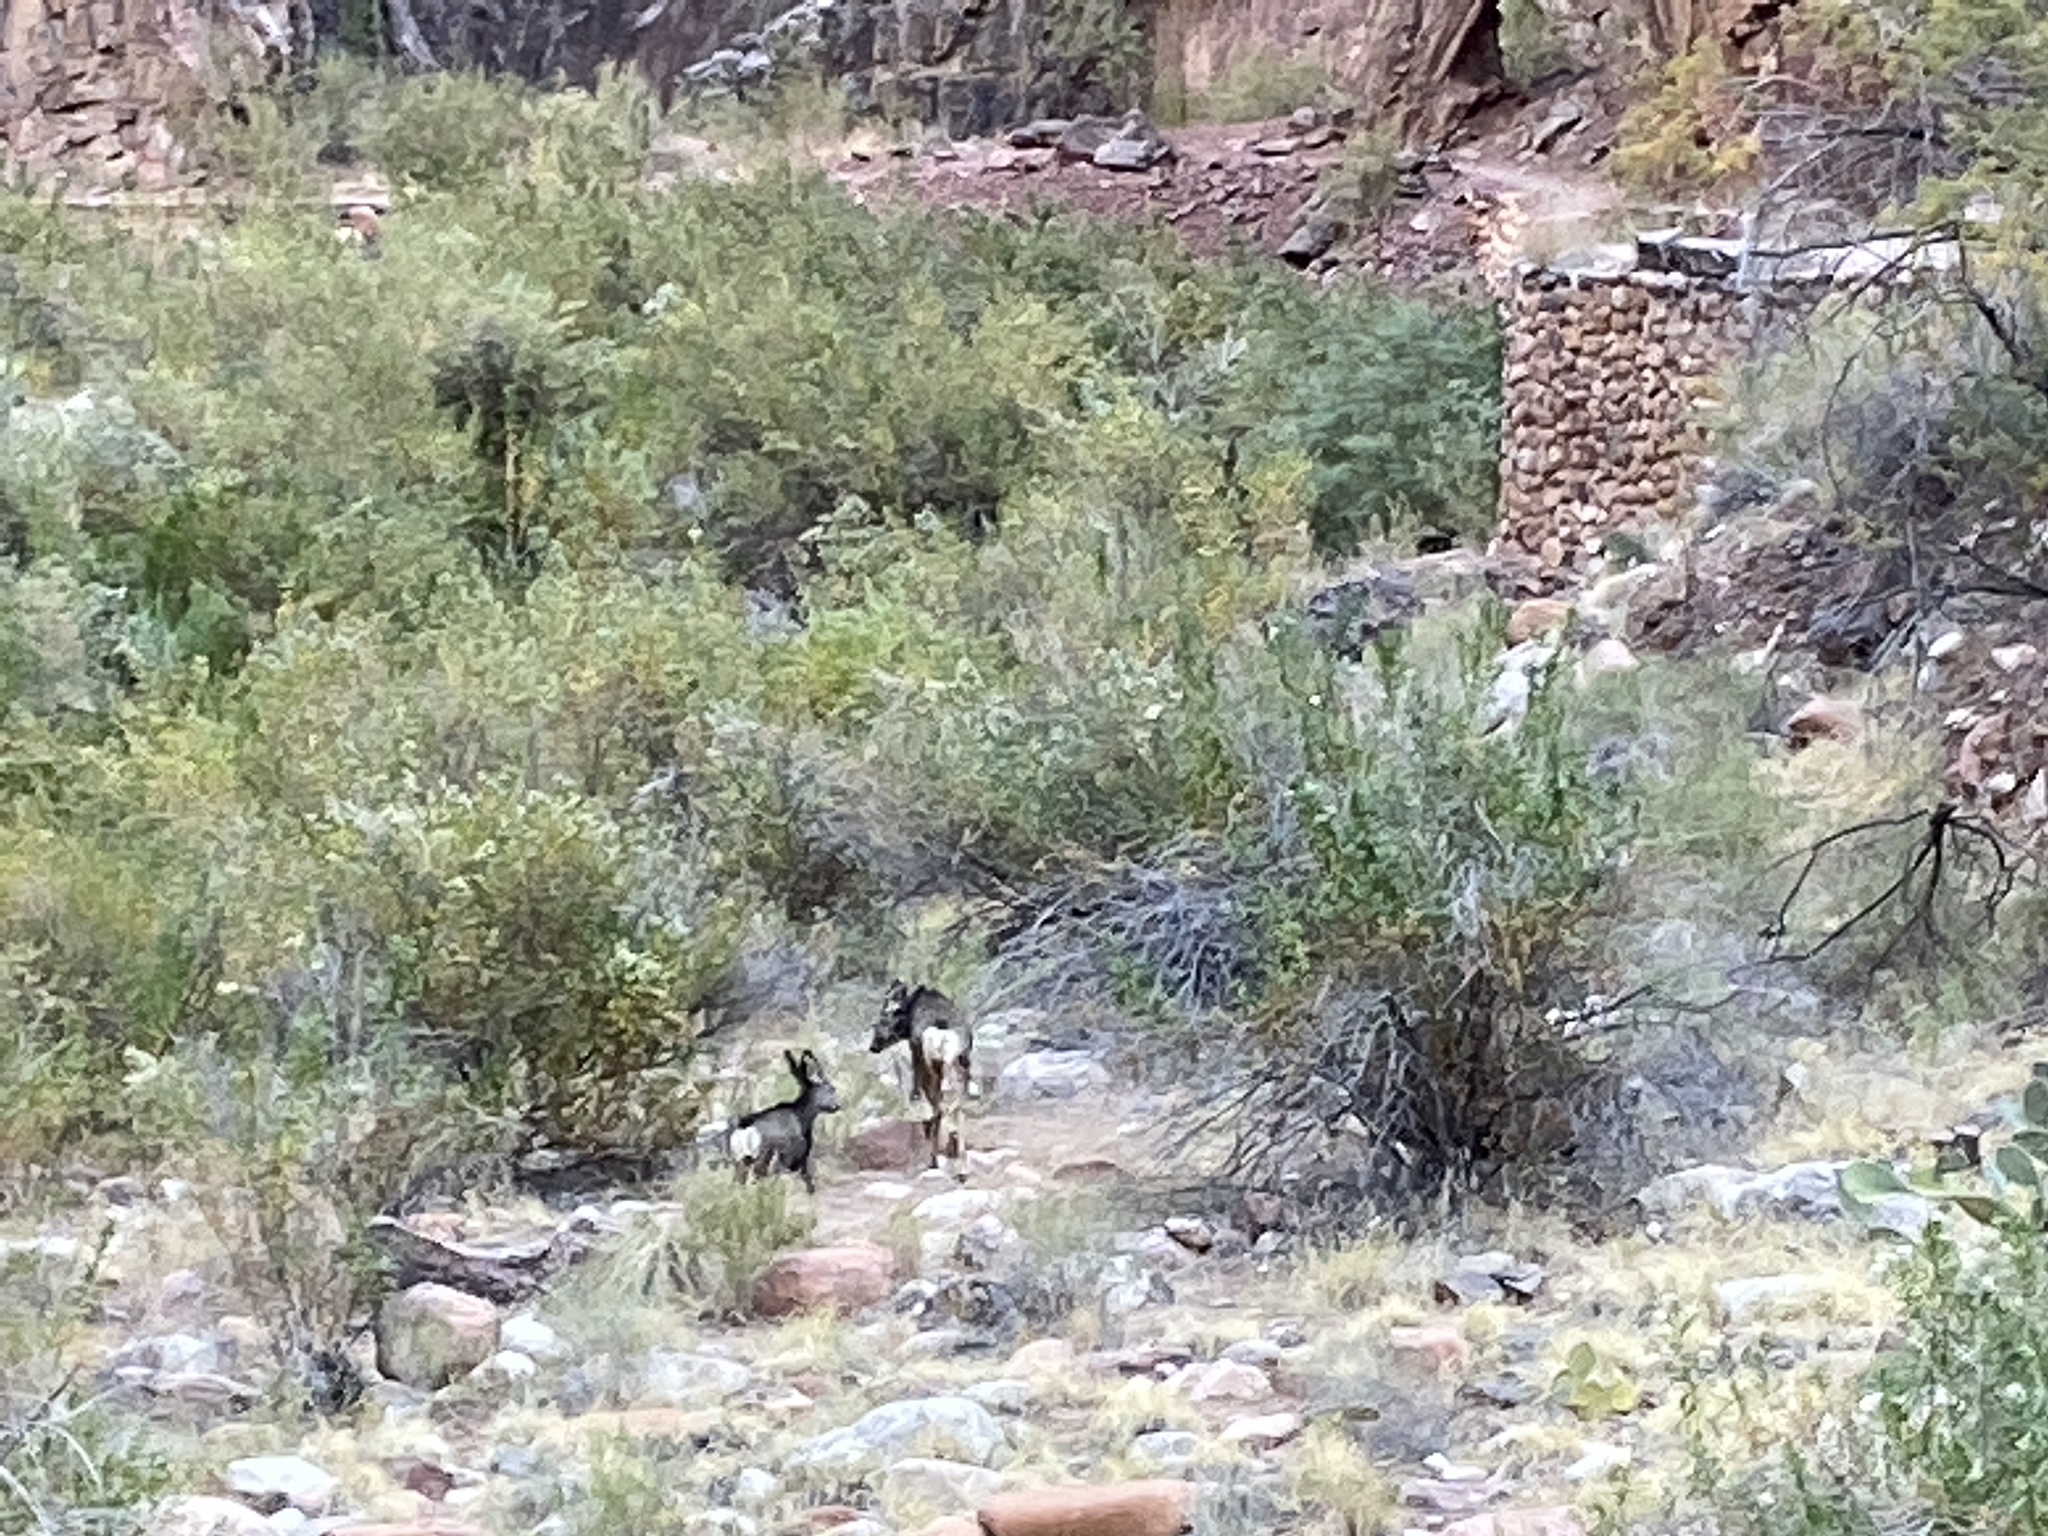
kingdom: Animalia
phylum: Chordata
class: Mammalia
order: Artiodactyla
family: Cervidae
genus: Odocoileus
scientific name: Odocoileus hemionus
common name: Mule deer
